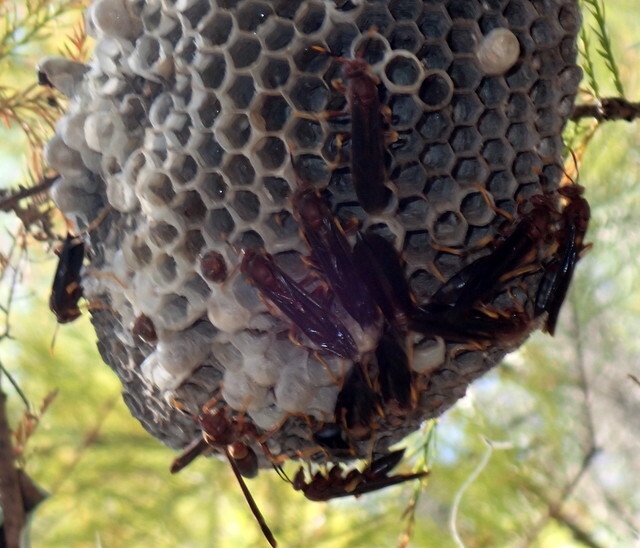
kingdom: Animalia
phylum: Arthropoda
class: Insecta
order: Hymenoptera
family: Eumenidae
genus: Polistes
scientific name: Polistes annularis
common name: Ringed paper wasp
